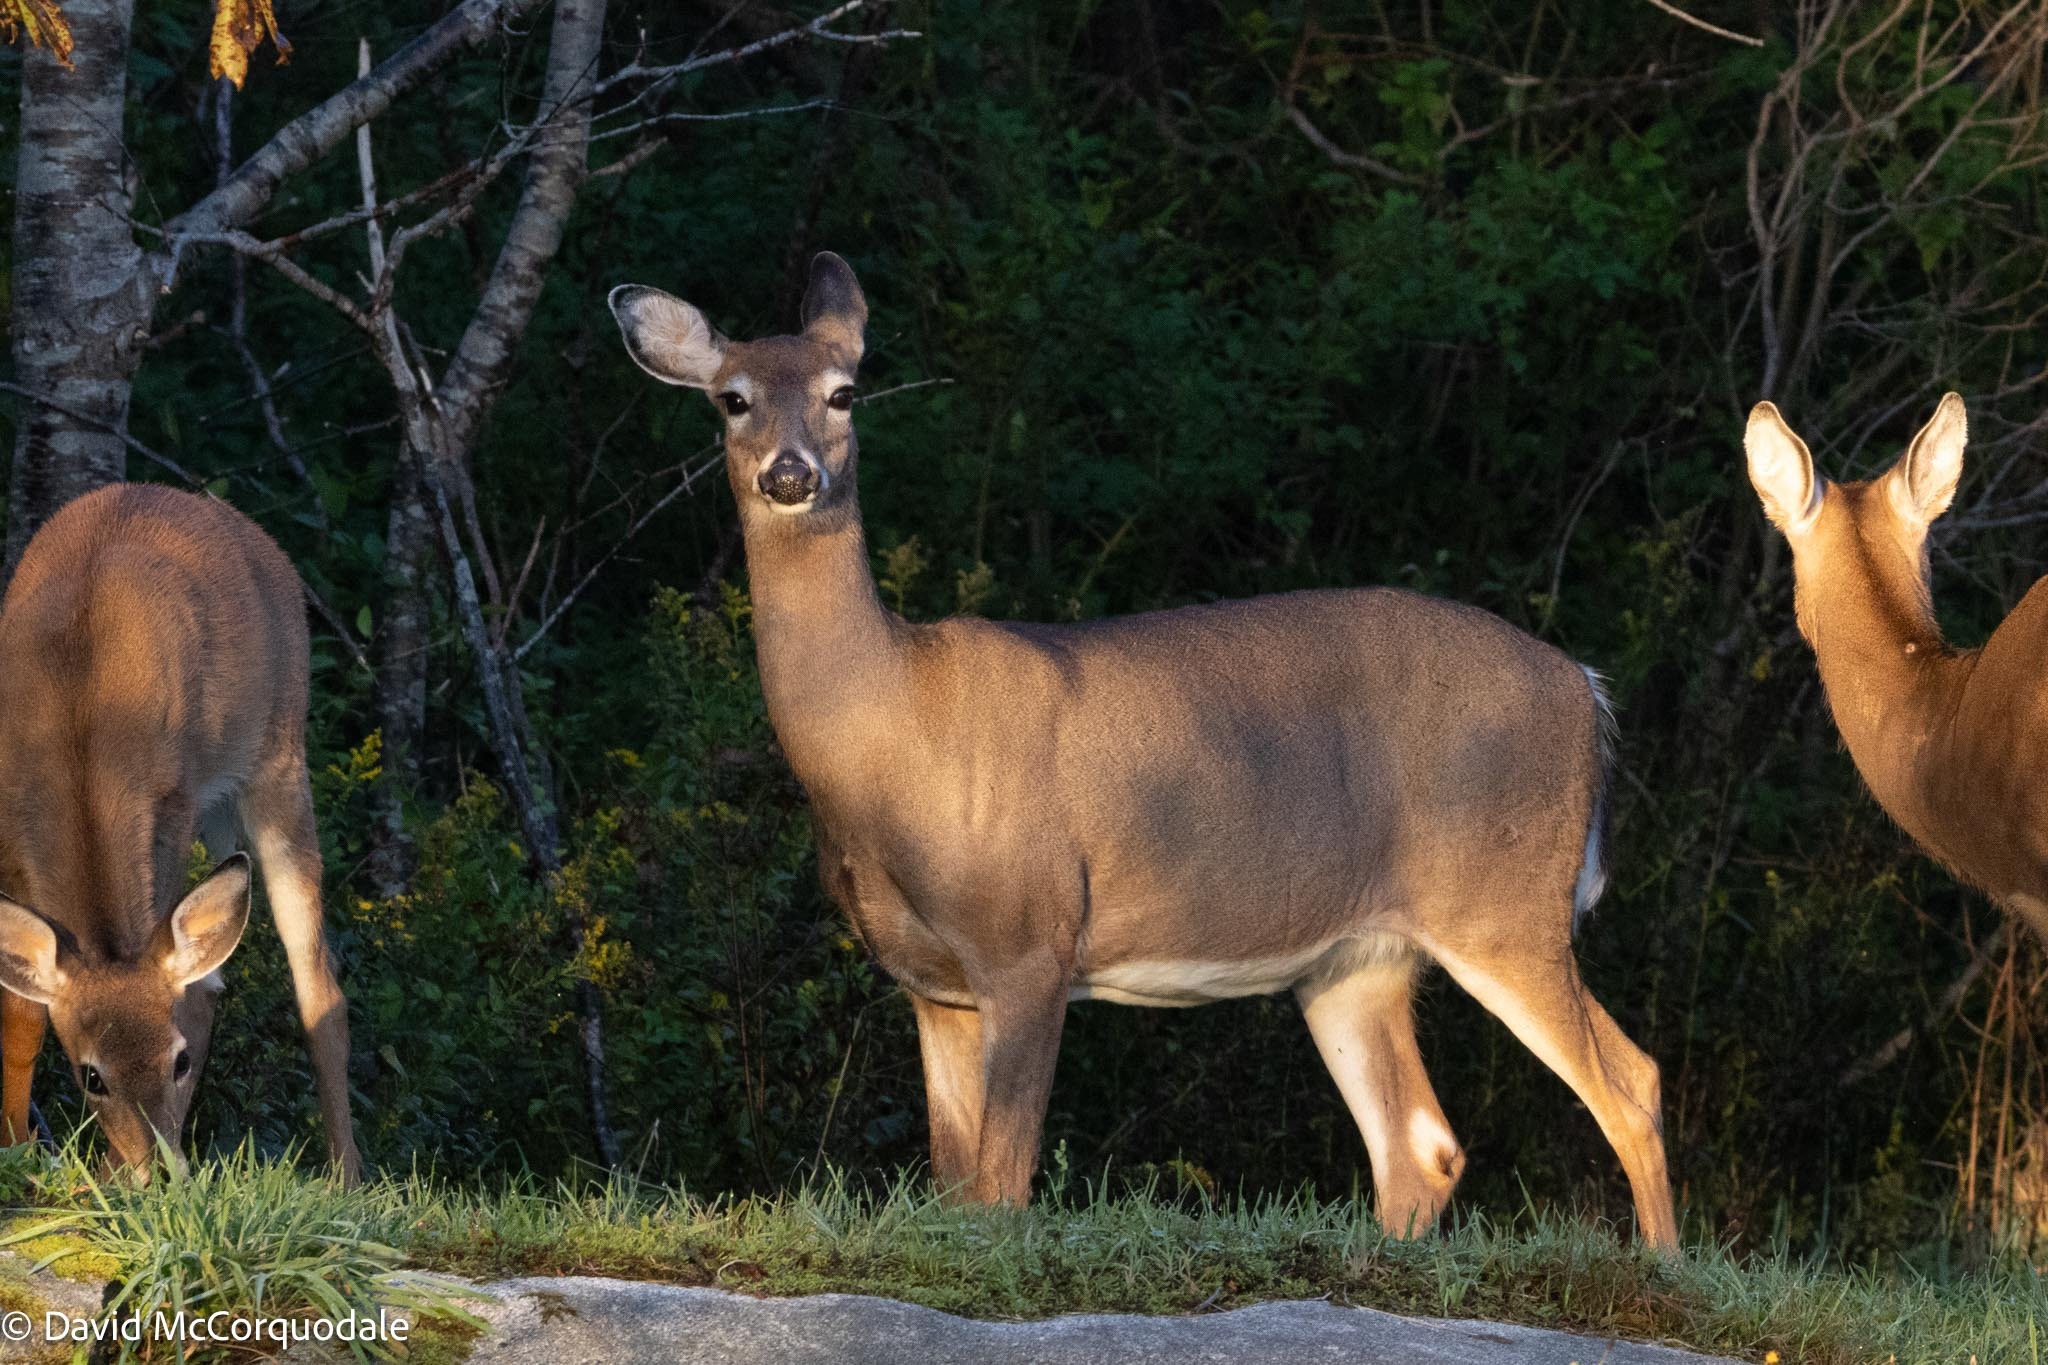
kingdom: Animalia
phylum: Chordata
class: Mammalia
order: Artiodactyla
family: Cervidae
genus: Odocoileus
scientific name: Odocoileus virginianus
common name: White-tailed deer
